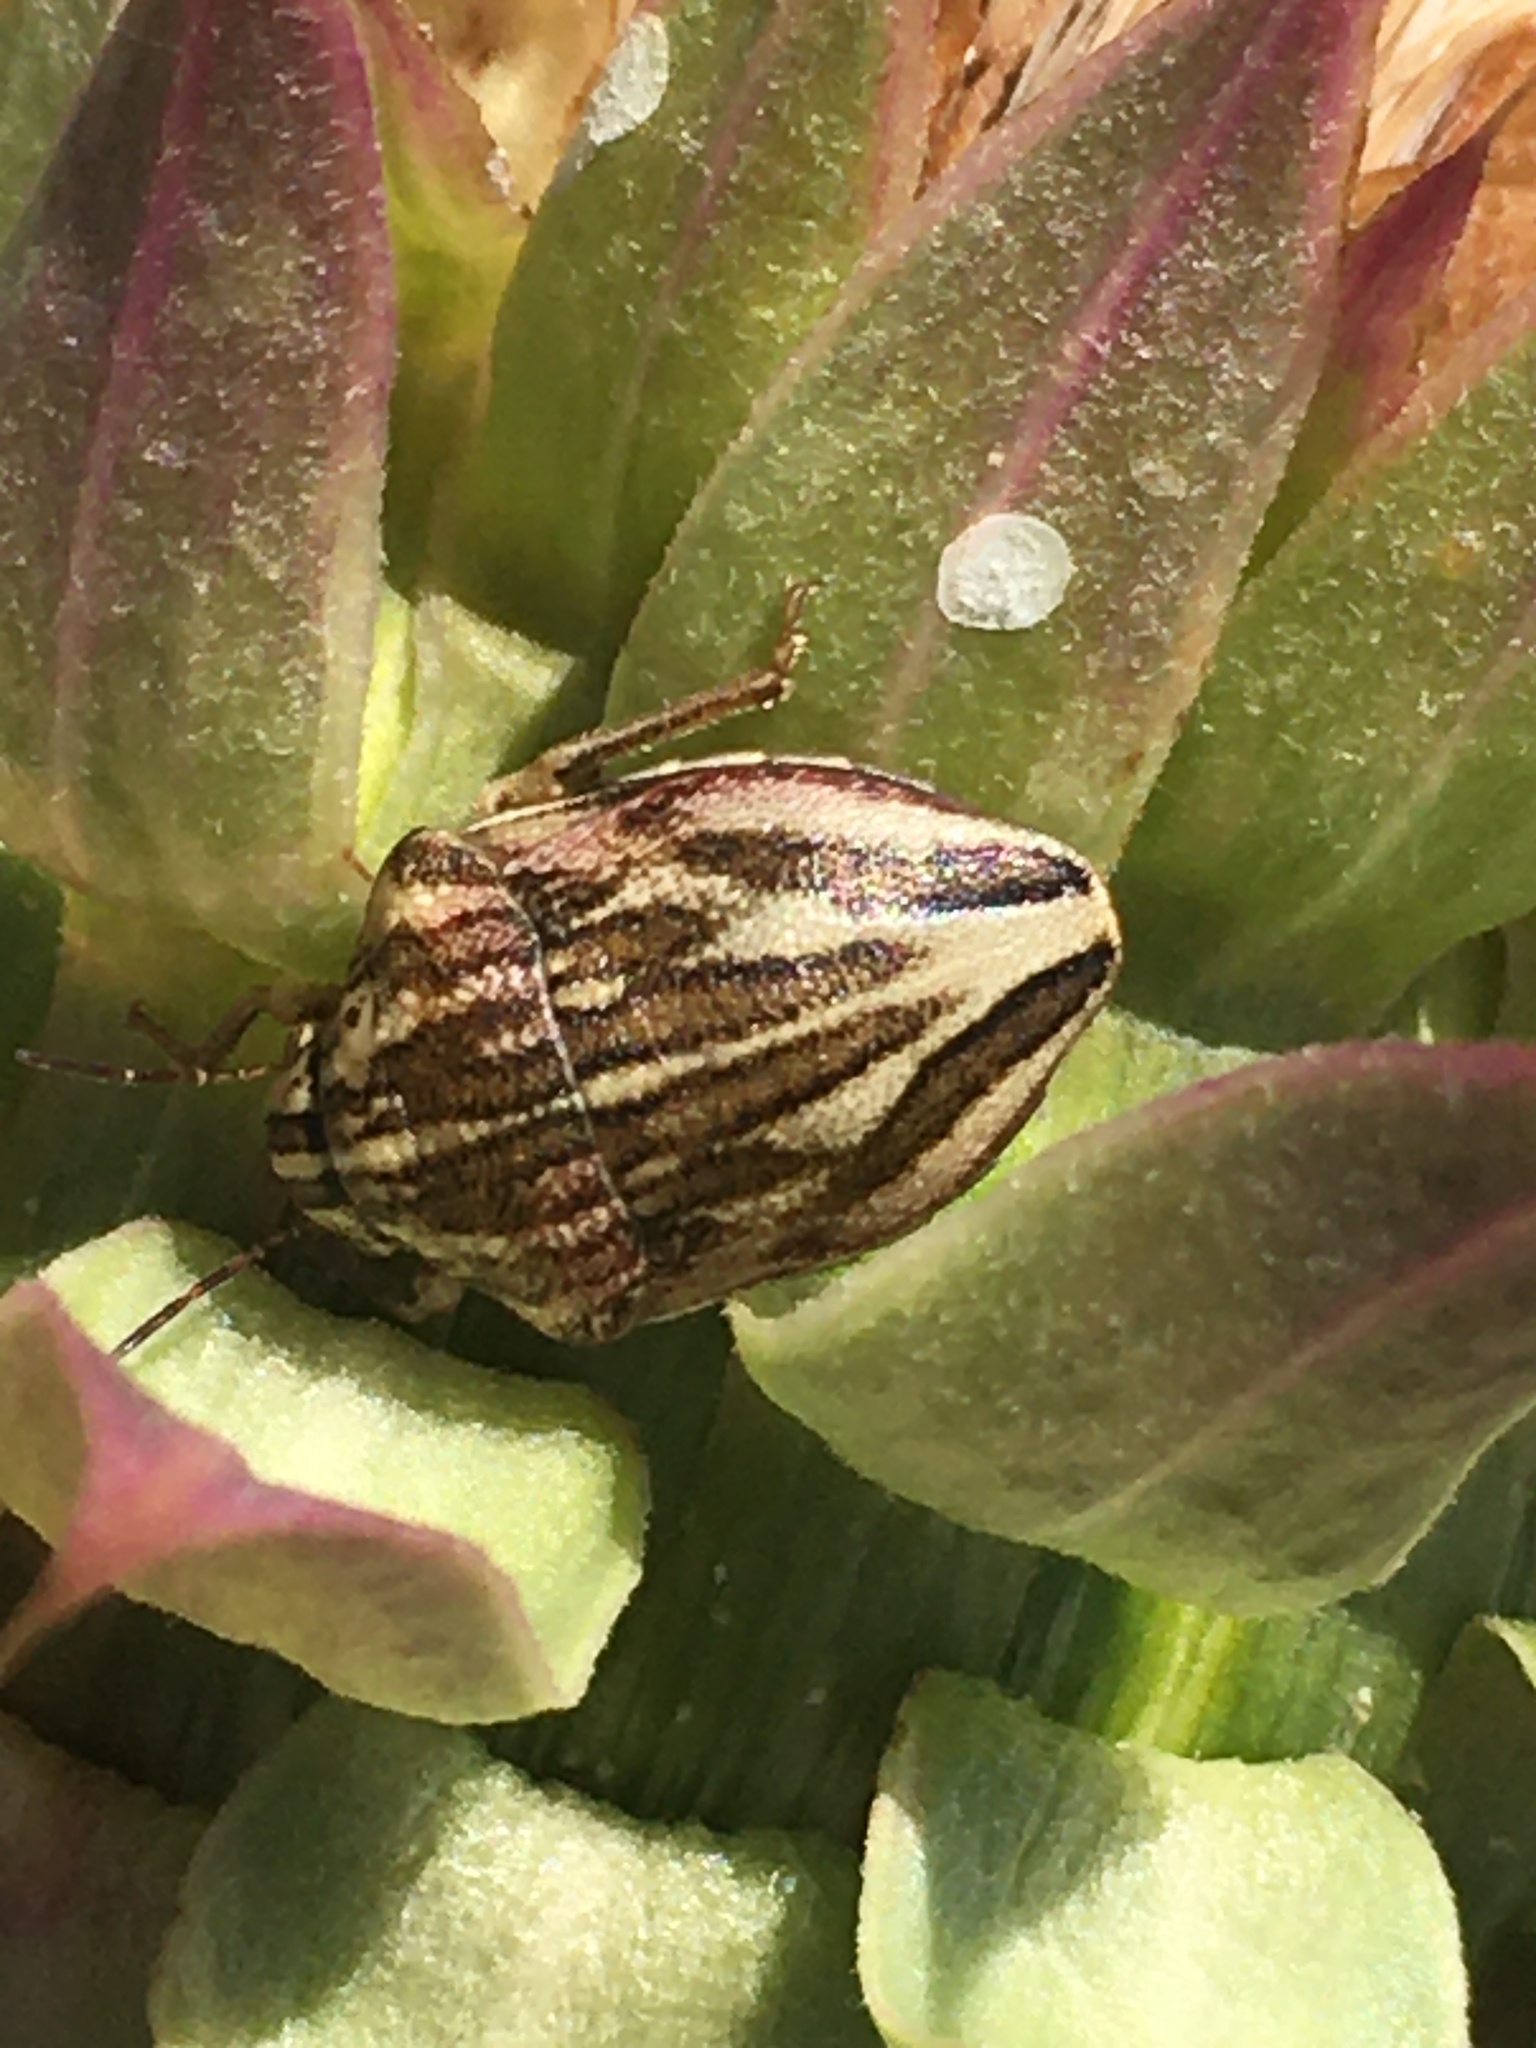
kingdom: Animalia
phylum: Arthropoda
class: Insecta
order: Hemiptera
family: Scutelleridae
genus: Odontotarsus
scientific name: Odontotarsus purpureolineatus
